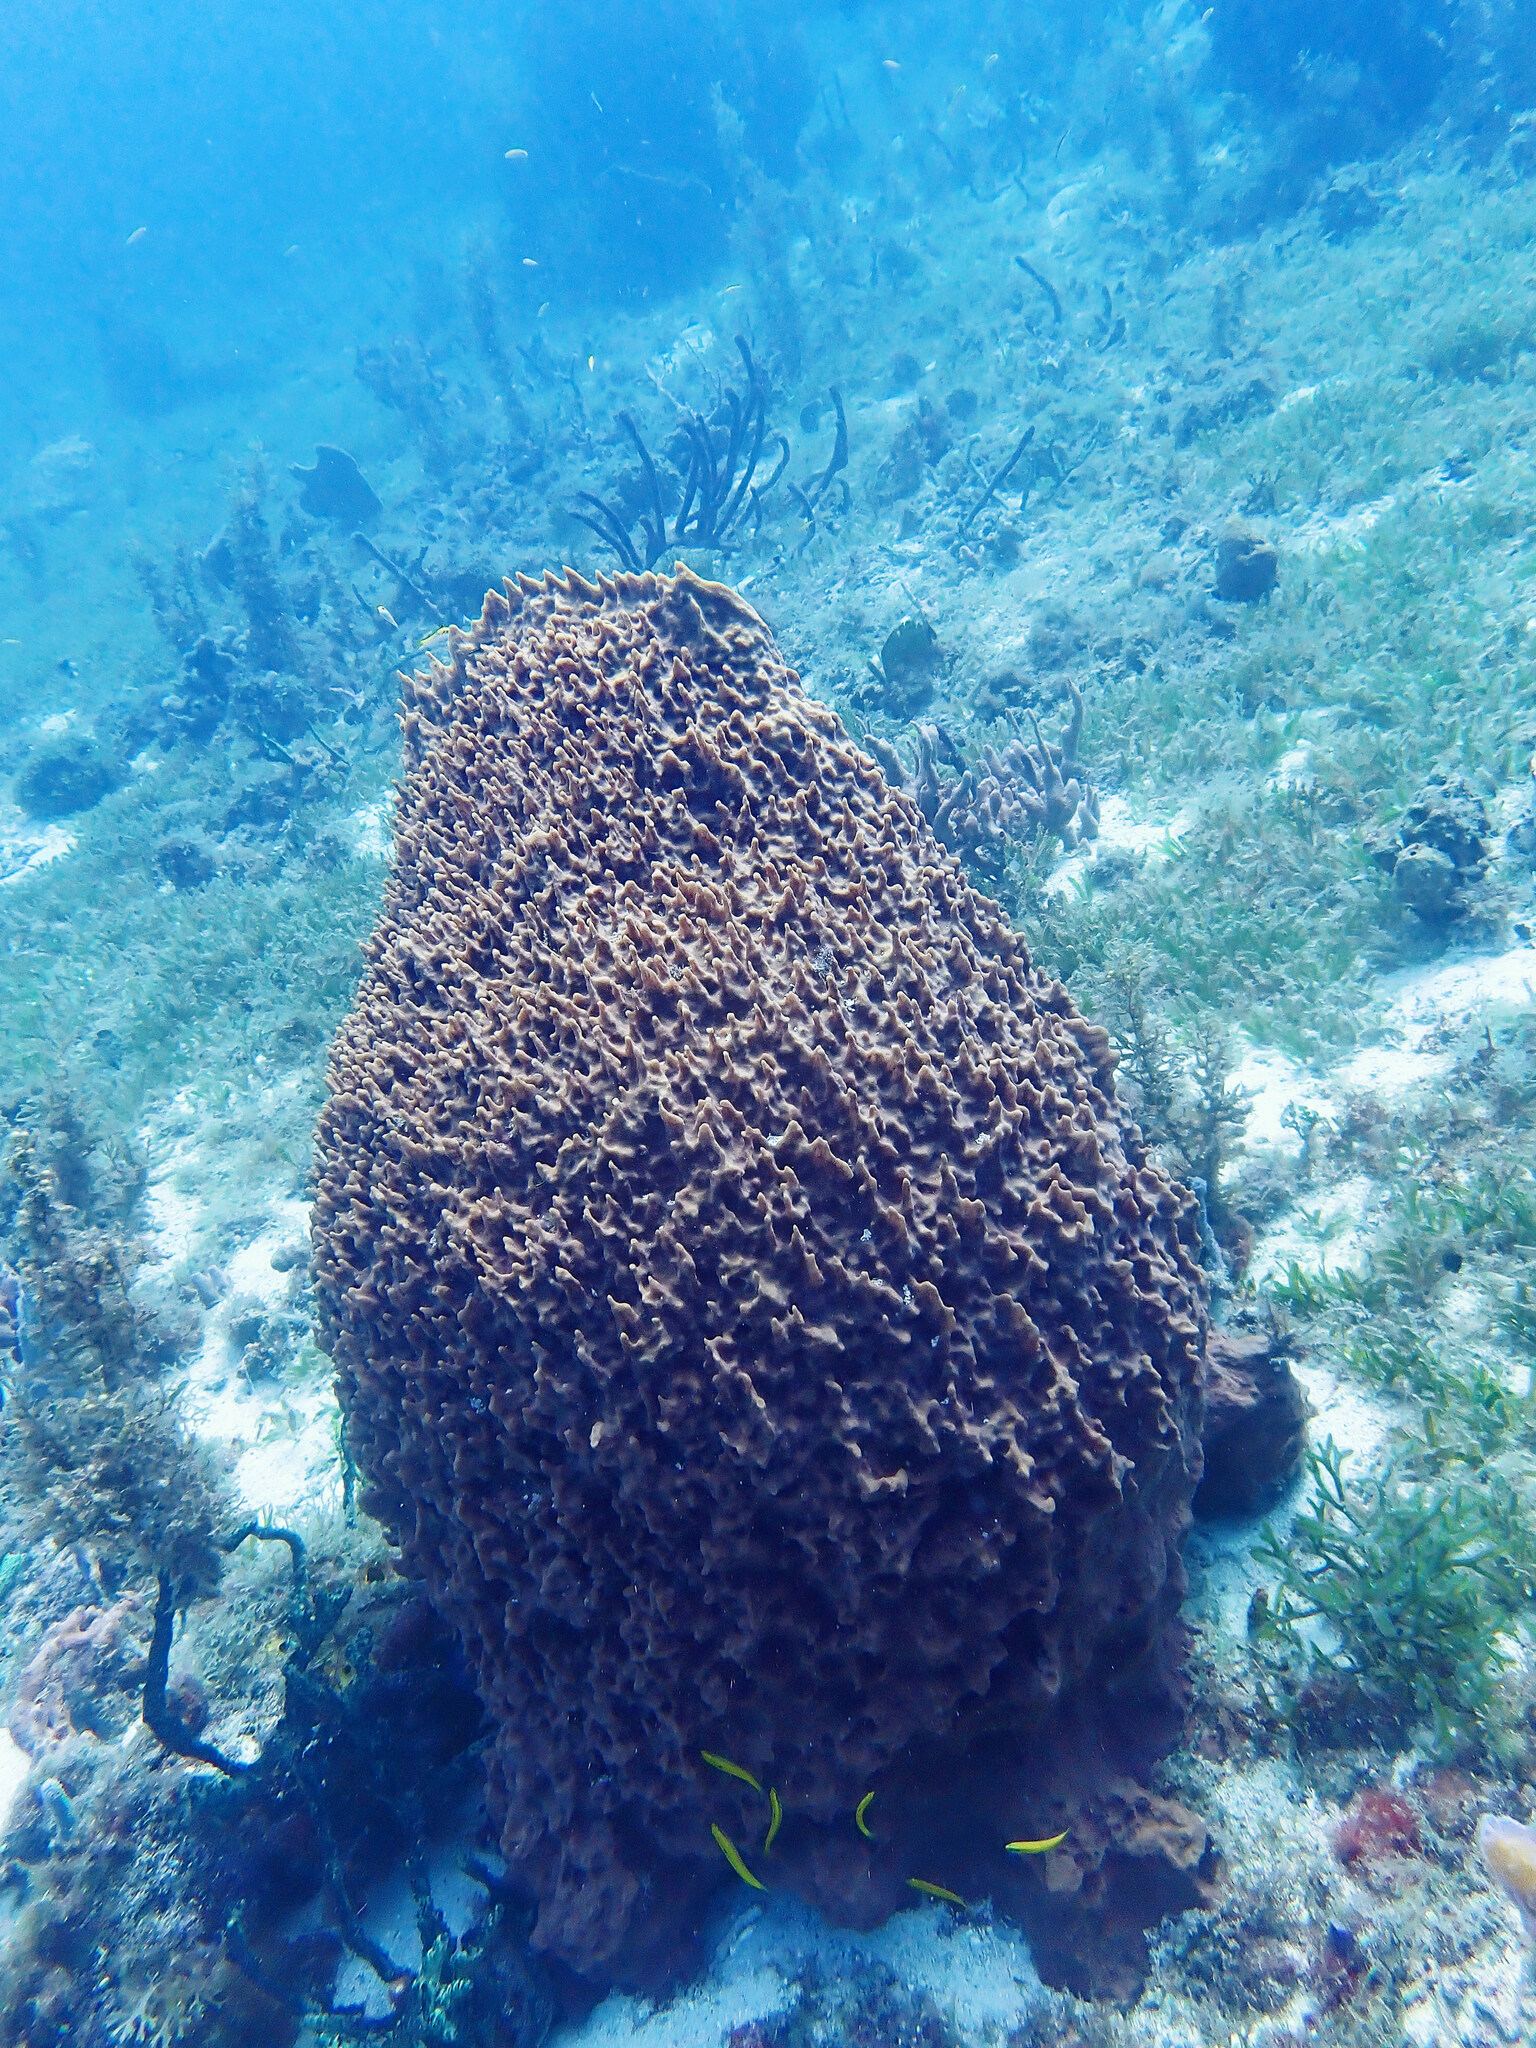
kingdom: Animalia
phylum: Porifera
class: Demospongiae
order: Haplosclerida
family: Petrosiidae
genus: Xestospongia
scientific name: Xestospongia muta
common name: Giant barrel sponge
